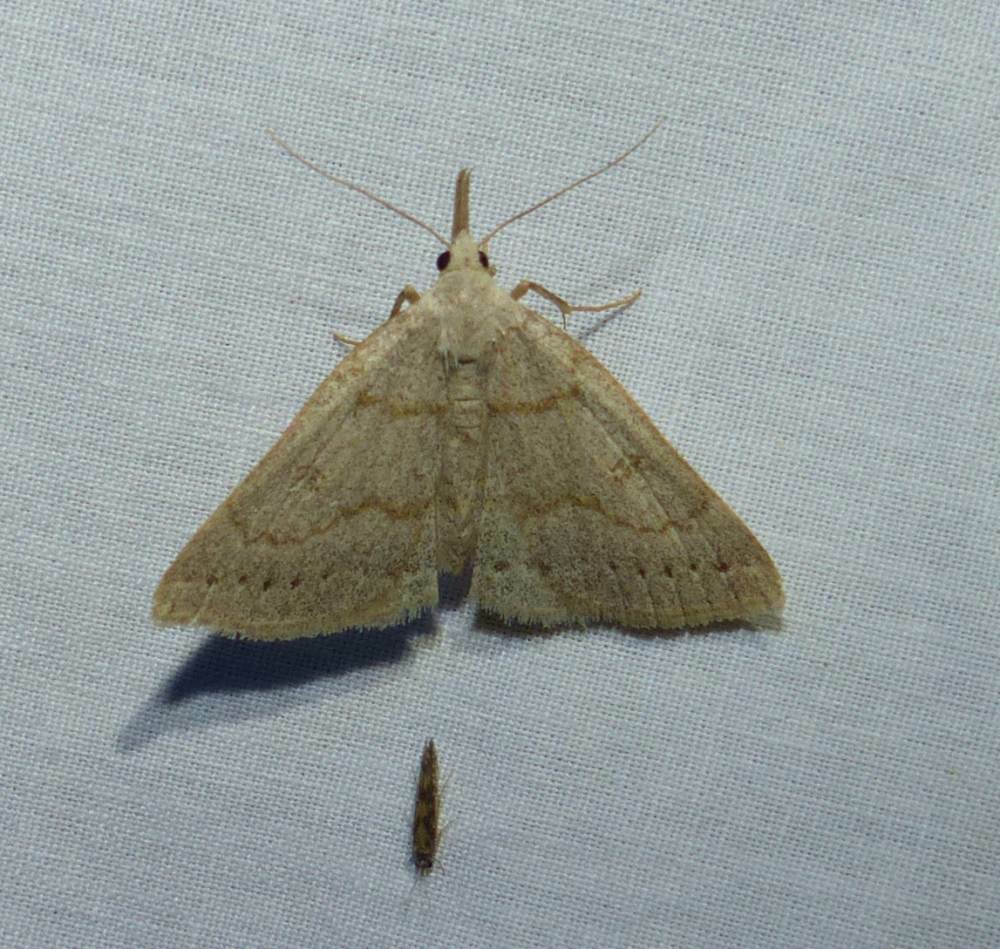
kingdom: Animalia
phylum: Arthropoda
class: Insecta
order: Lepidoptera
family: Erebidae
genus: Macrochilo
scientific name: Macrochilo morbidalis
